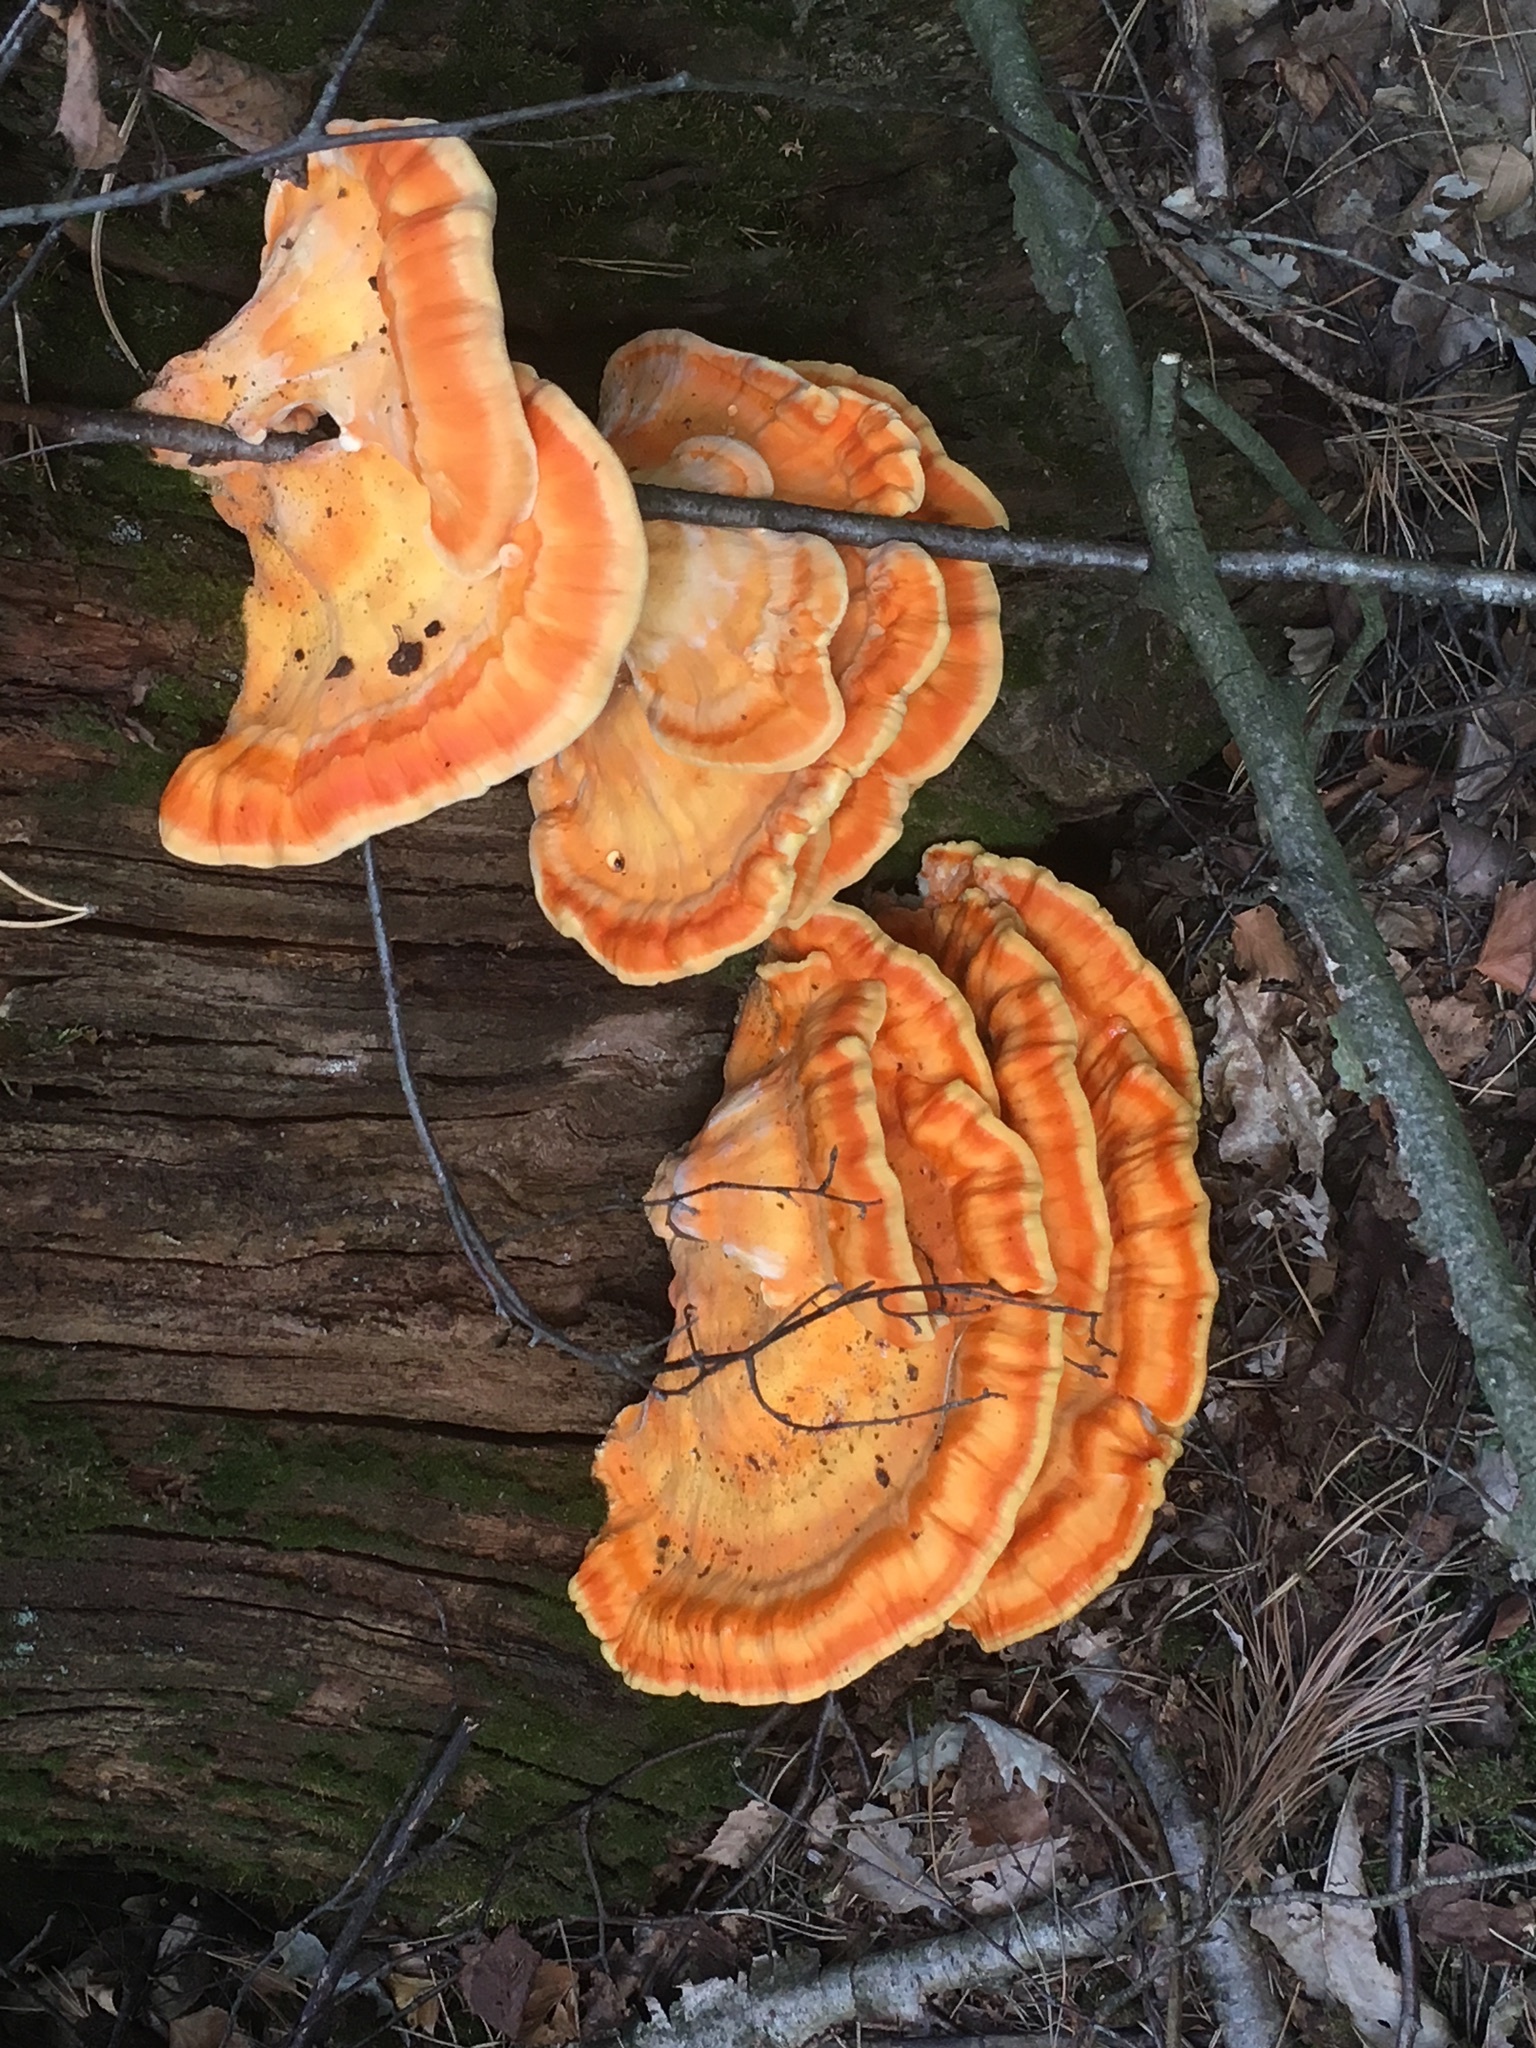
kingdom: Fungi
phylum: Basidiomycota
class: Agaricomycetes
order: Polyporales
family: Laetiporaceae
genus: Laetiporus
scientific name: Laetiporus sulphureus
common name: Chicken of the woods
